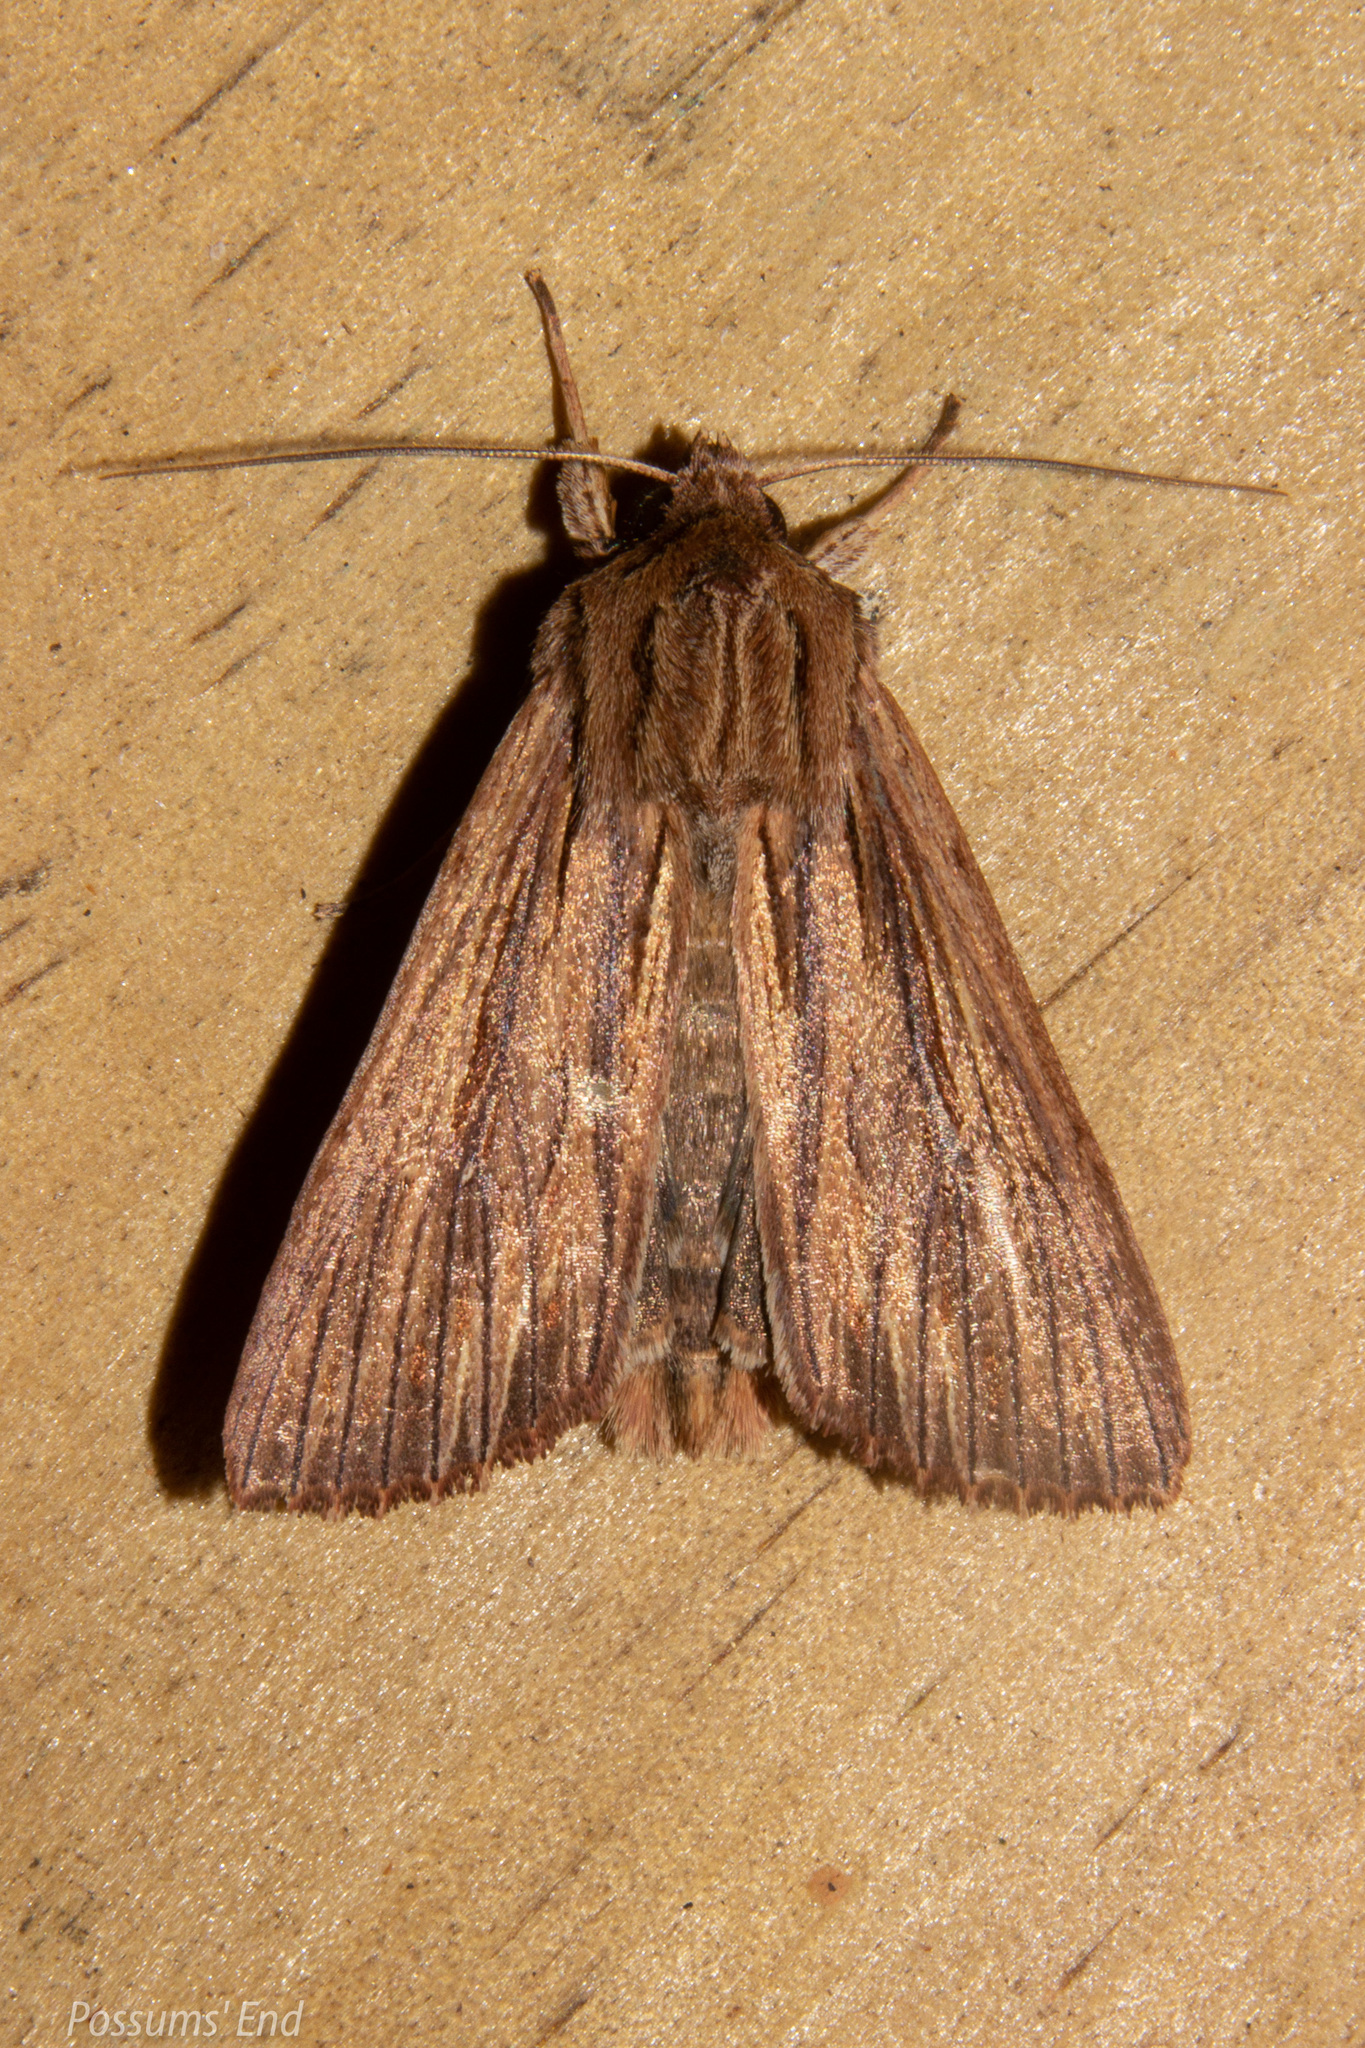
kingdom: Animalia
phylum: Arthropoda
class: Insecta
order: Lepidoptera
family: Noctuidae
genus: Ichneutica
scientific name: Ichneutica
